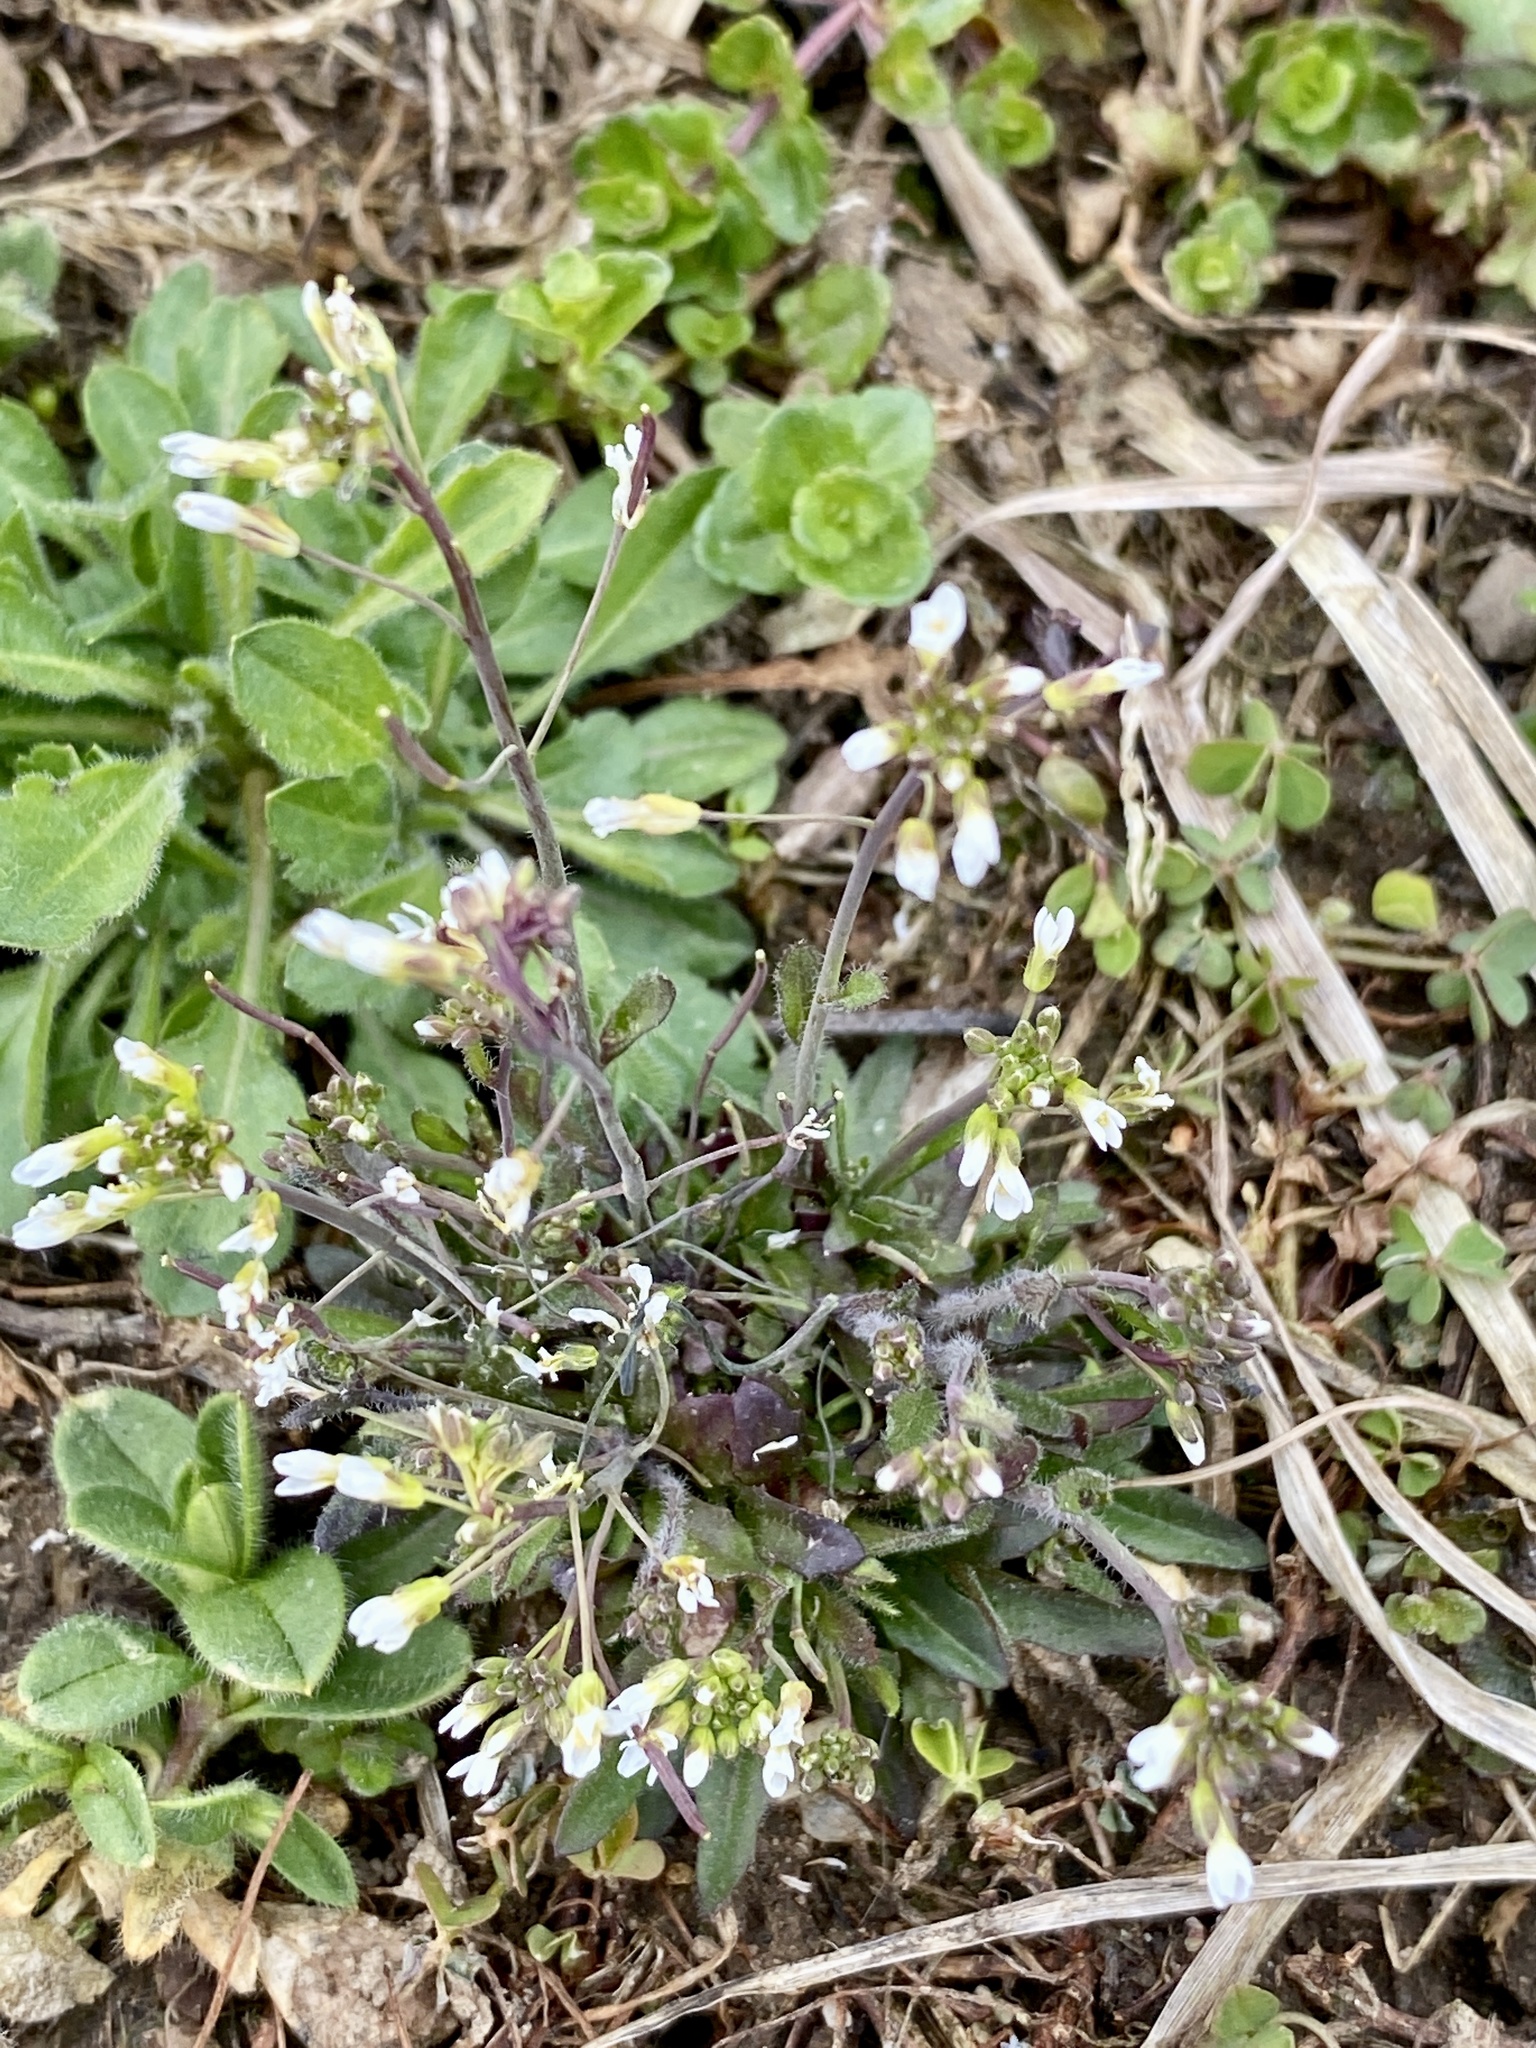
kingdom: Plantae
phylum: Tracheophyta
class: Magnoliopsida
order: Brassicales
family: Brassicaceae
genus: Arabidopsis
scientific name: Arabidopsis thaliana
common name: Thale cress
